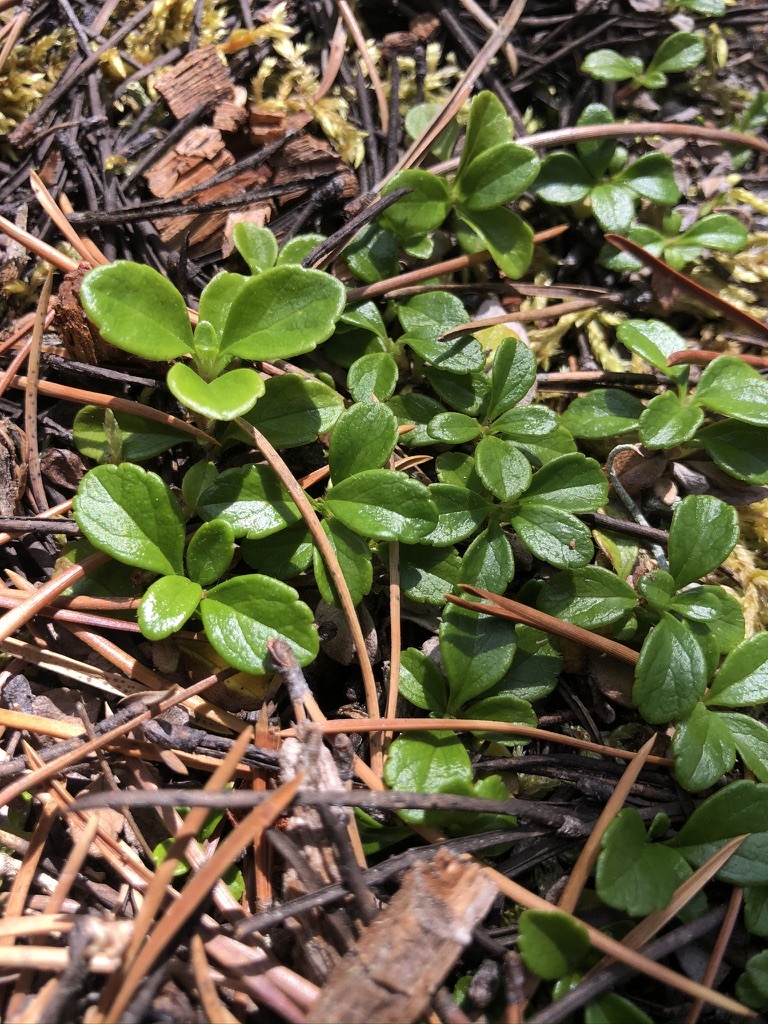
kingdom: Plantae
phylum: Tracheophyta
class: Magnoliopsida
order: Dipsacales
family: Caprifoliaceae
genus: Linnaea
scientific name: Linnaea borealis
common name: Twinflower
